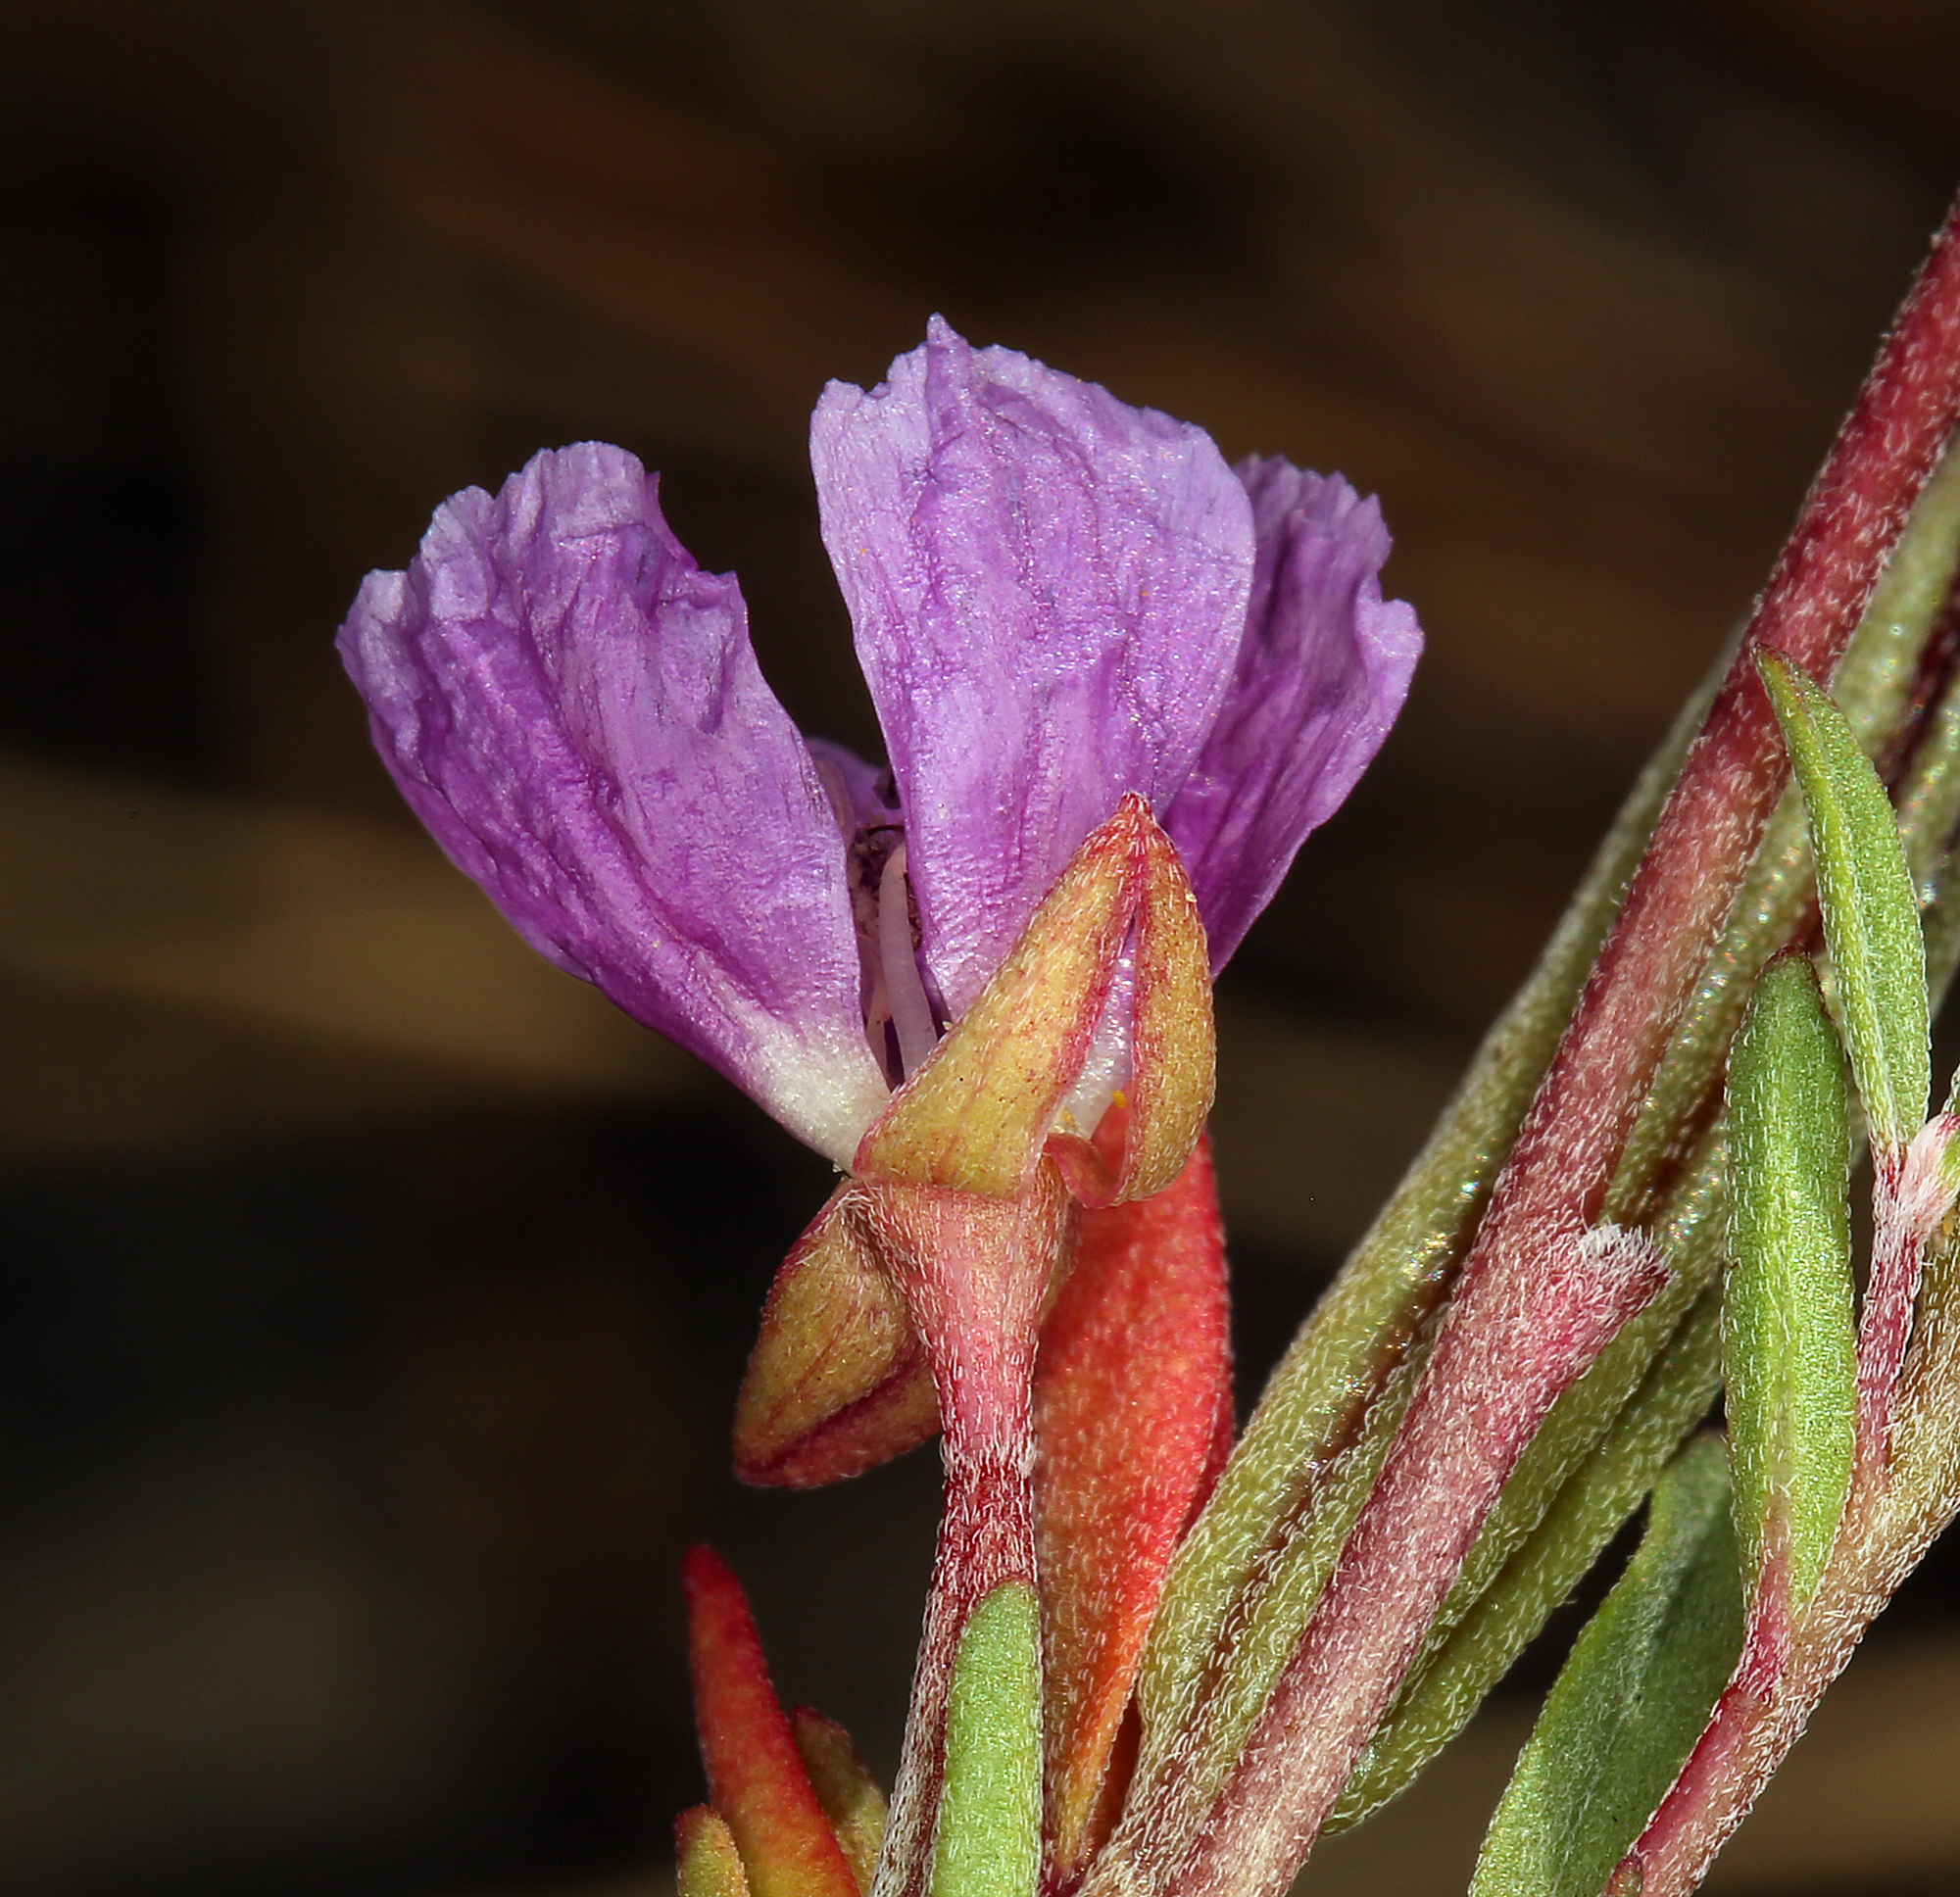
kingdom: Plantae
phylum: Tracheophyta
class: Magnoliopsida
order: Myrtales
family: Onagraceae
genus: Clarkia
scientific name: Clarkia davyi
